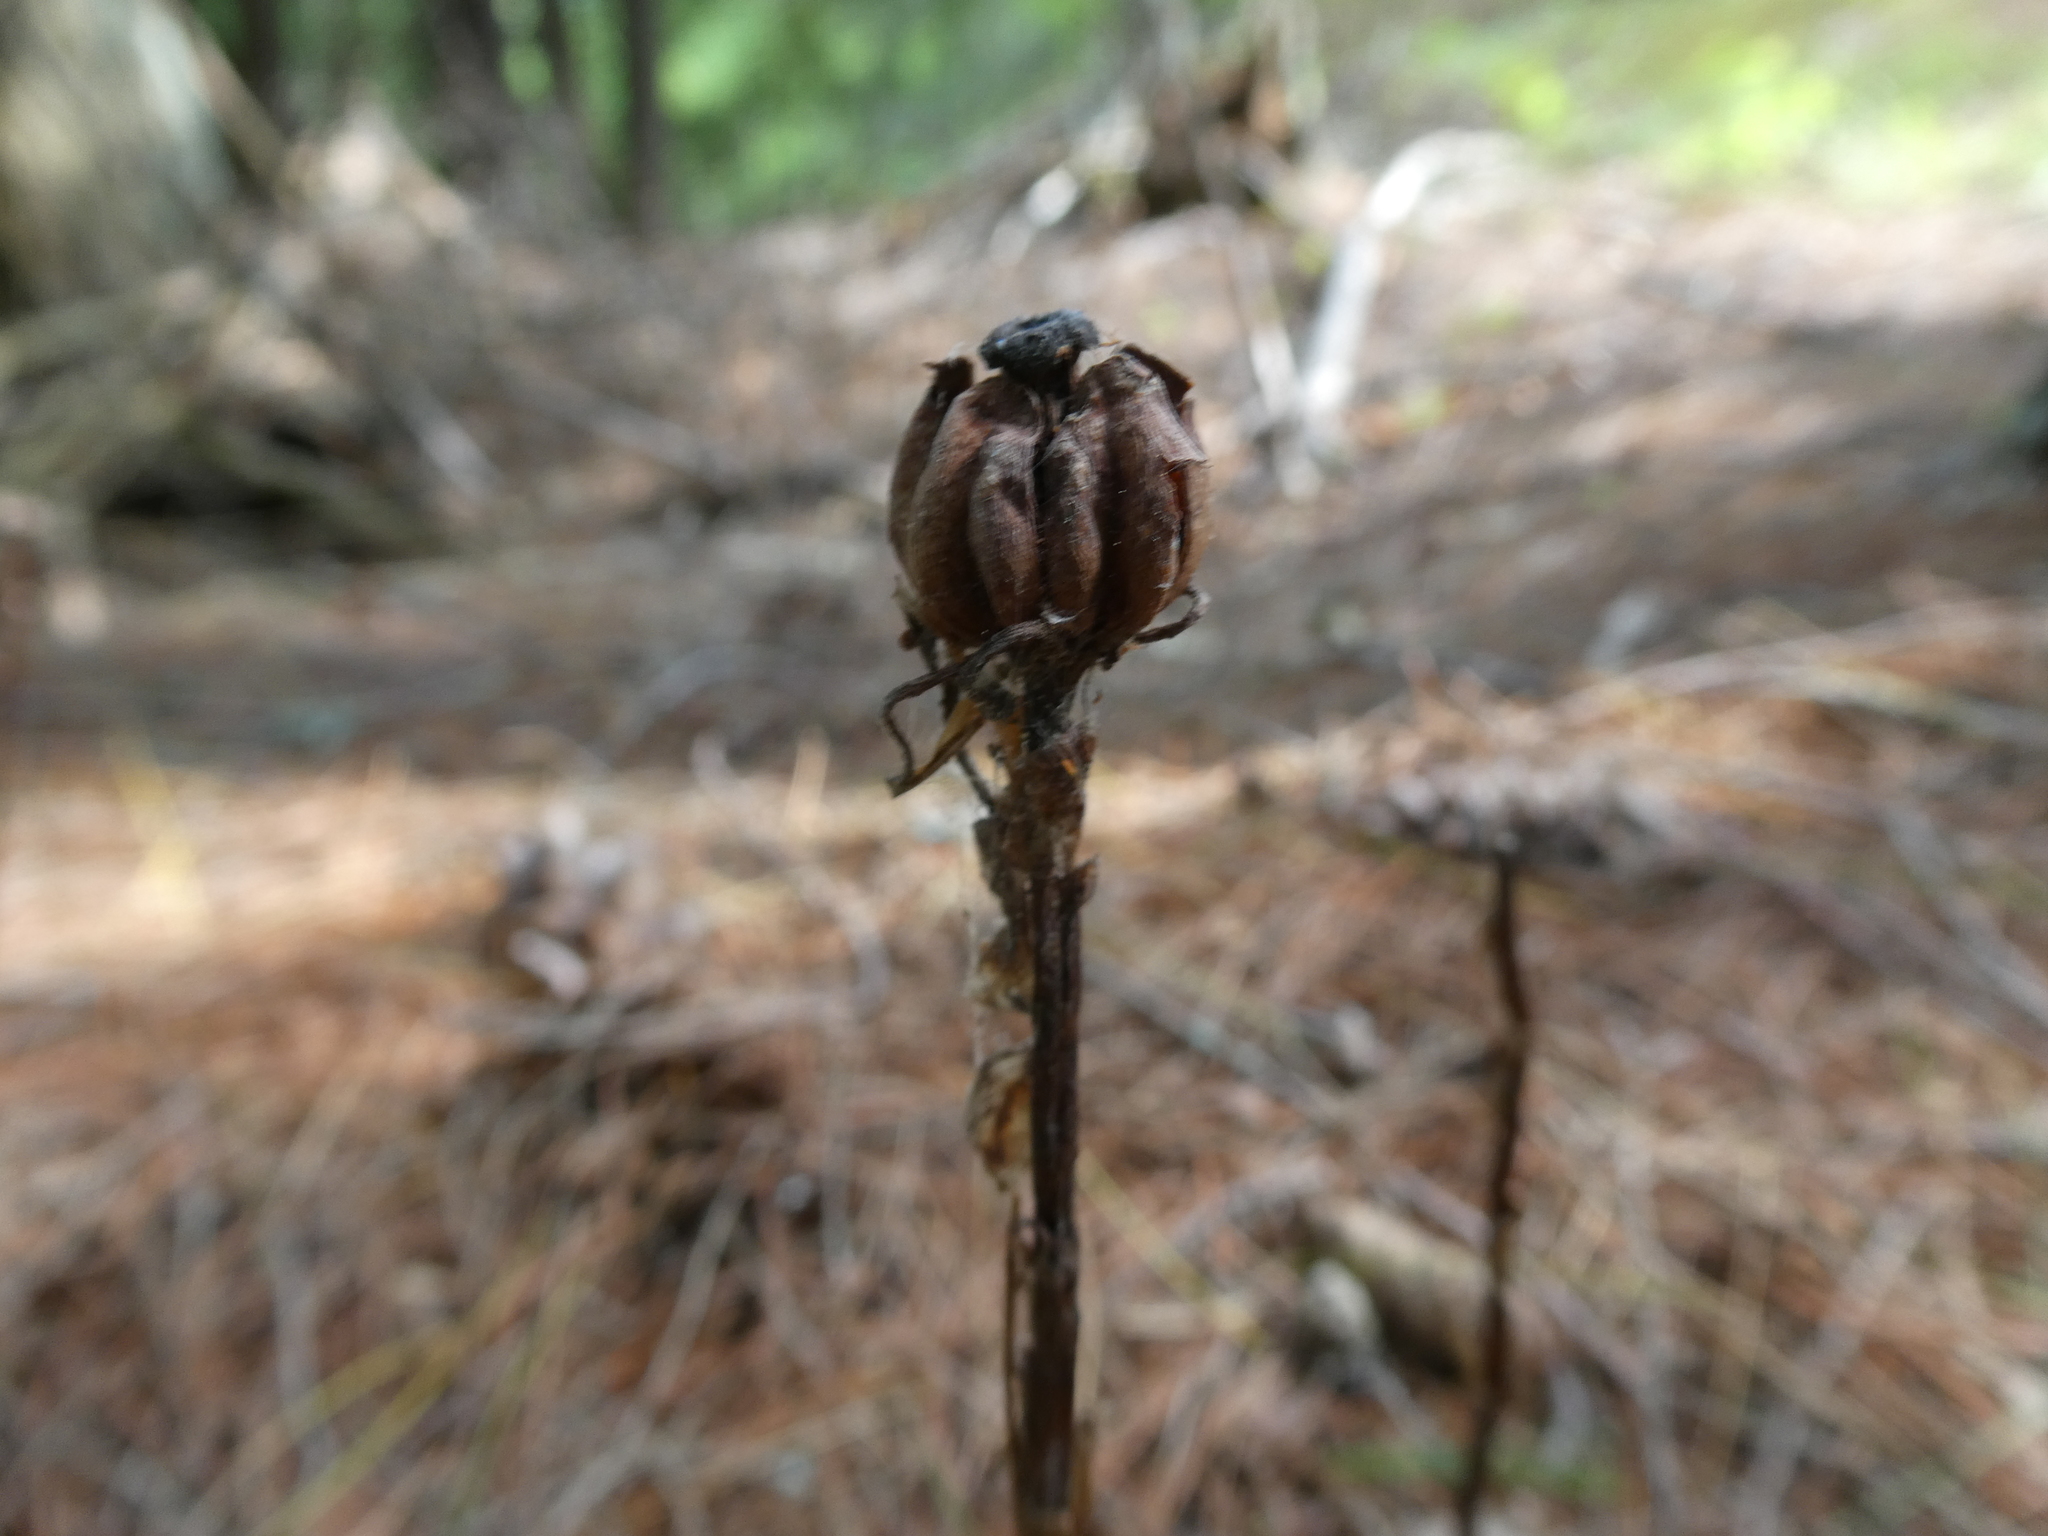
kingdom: Plantae
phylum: Tracheophyta
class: Magnoliopsida
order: Ericales
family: Ericaceae
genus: Monotropa
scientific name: Monotropa uniflora
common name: Convulsion root
